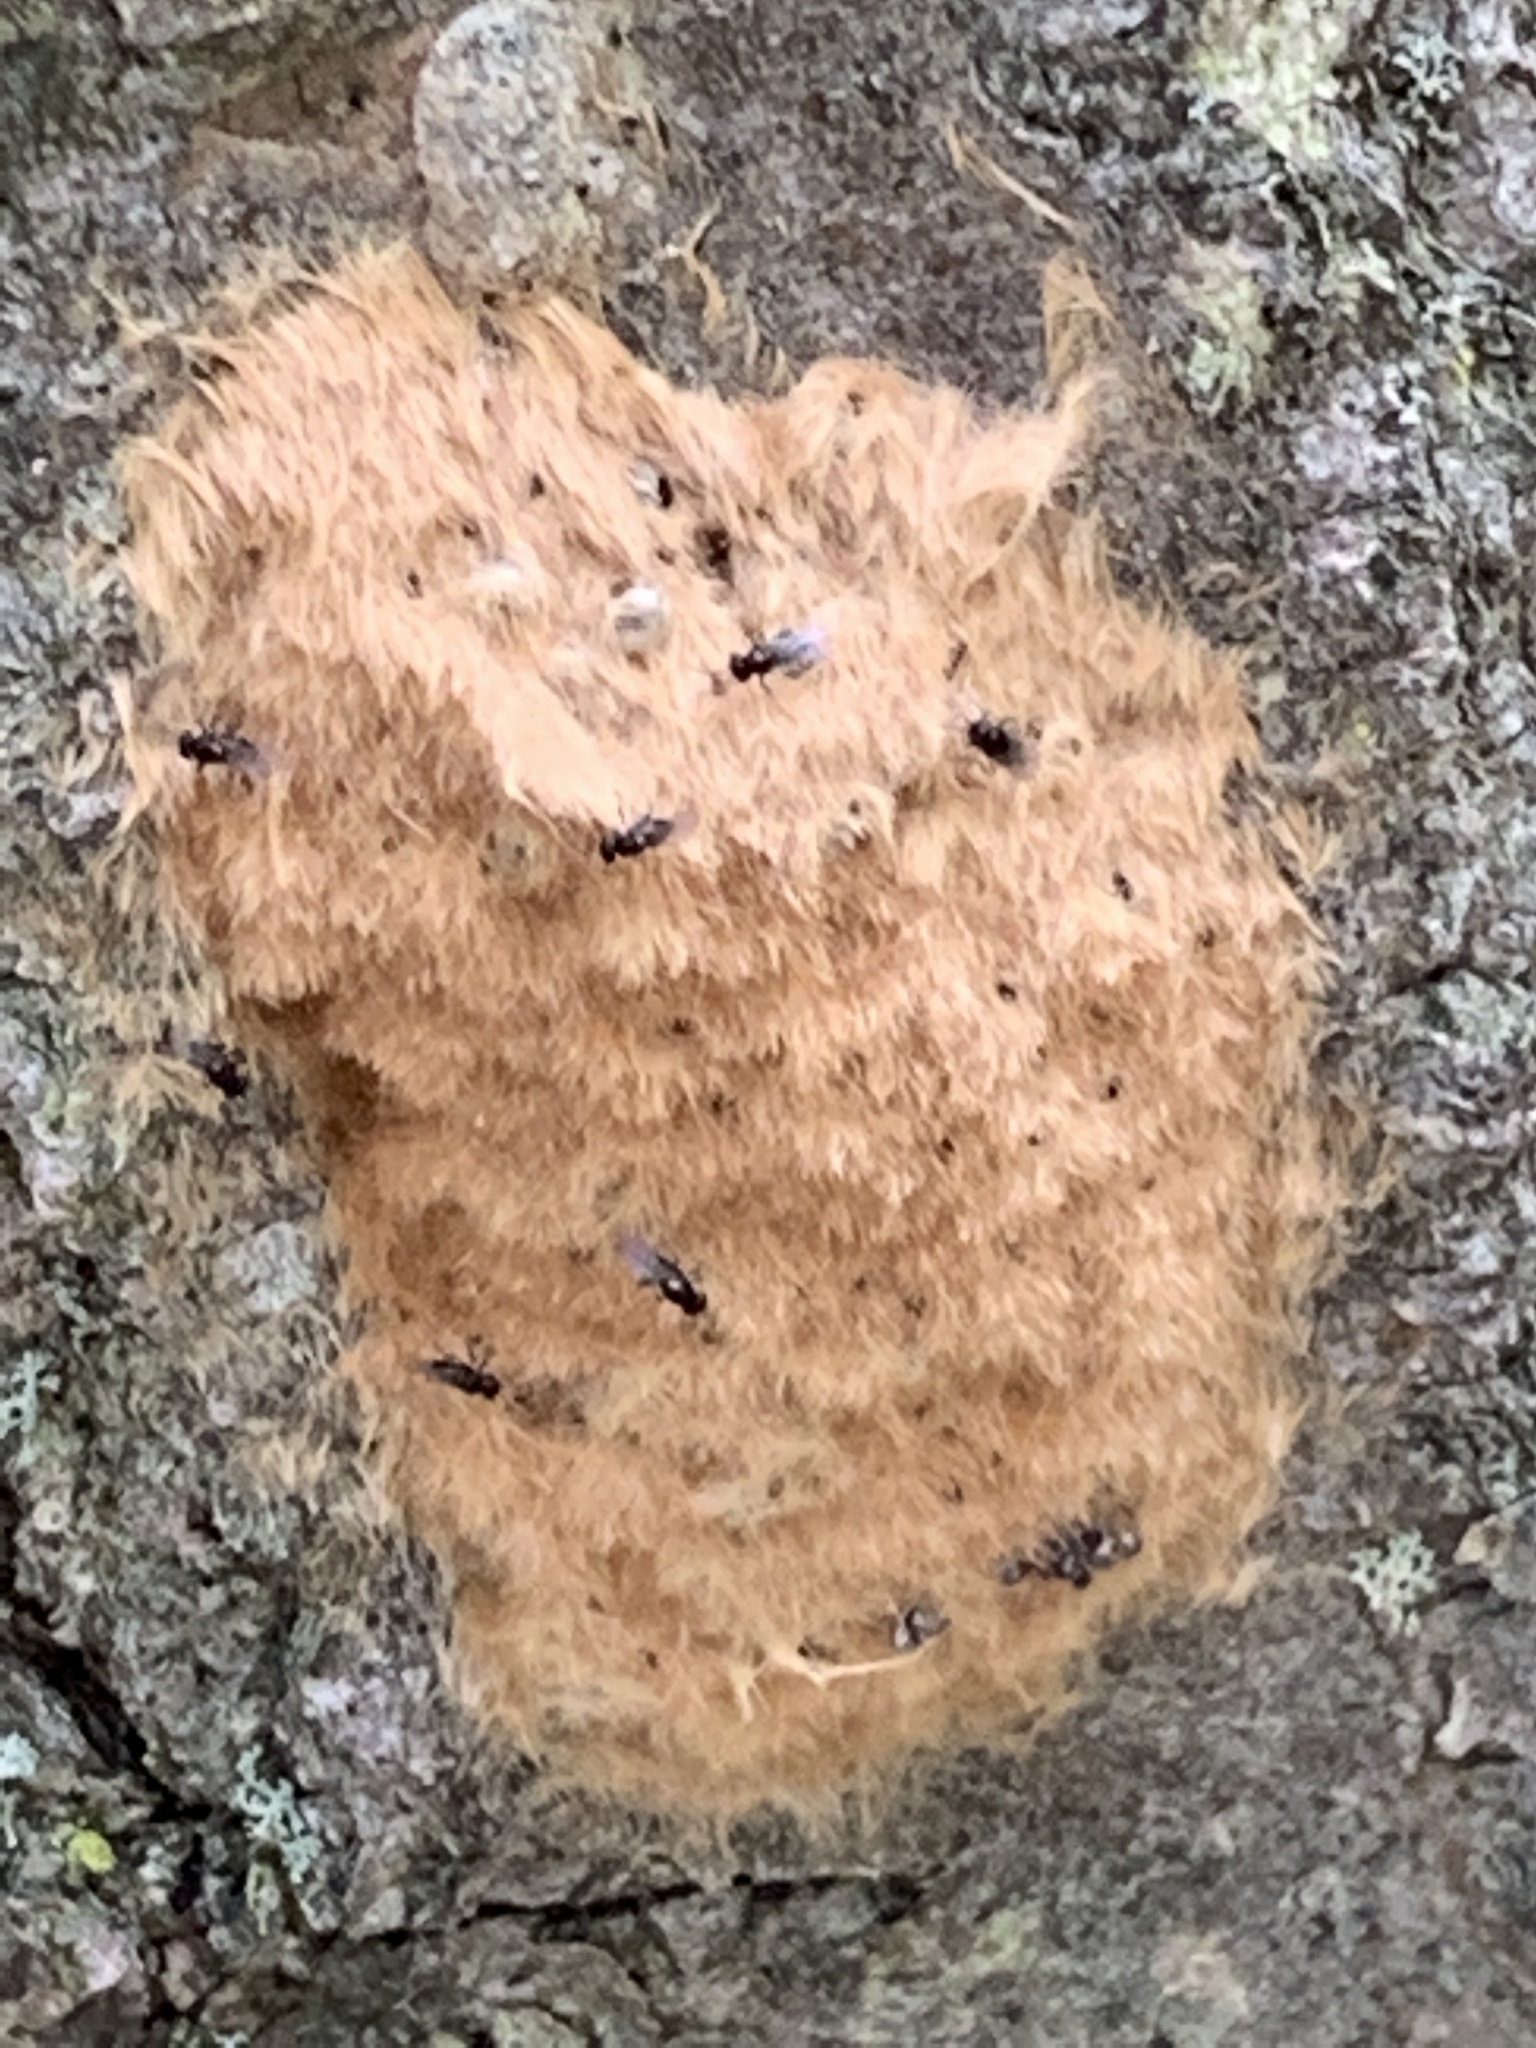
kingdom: Animalia
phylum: Arthropoda
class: Insecta
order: Lepidoptera
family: Erebidae
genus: Lymantria
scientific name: Lymantria dispar
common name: Gypsy moth
